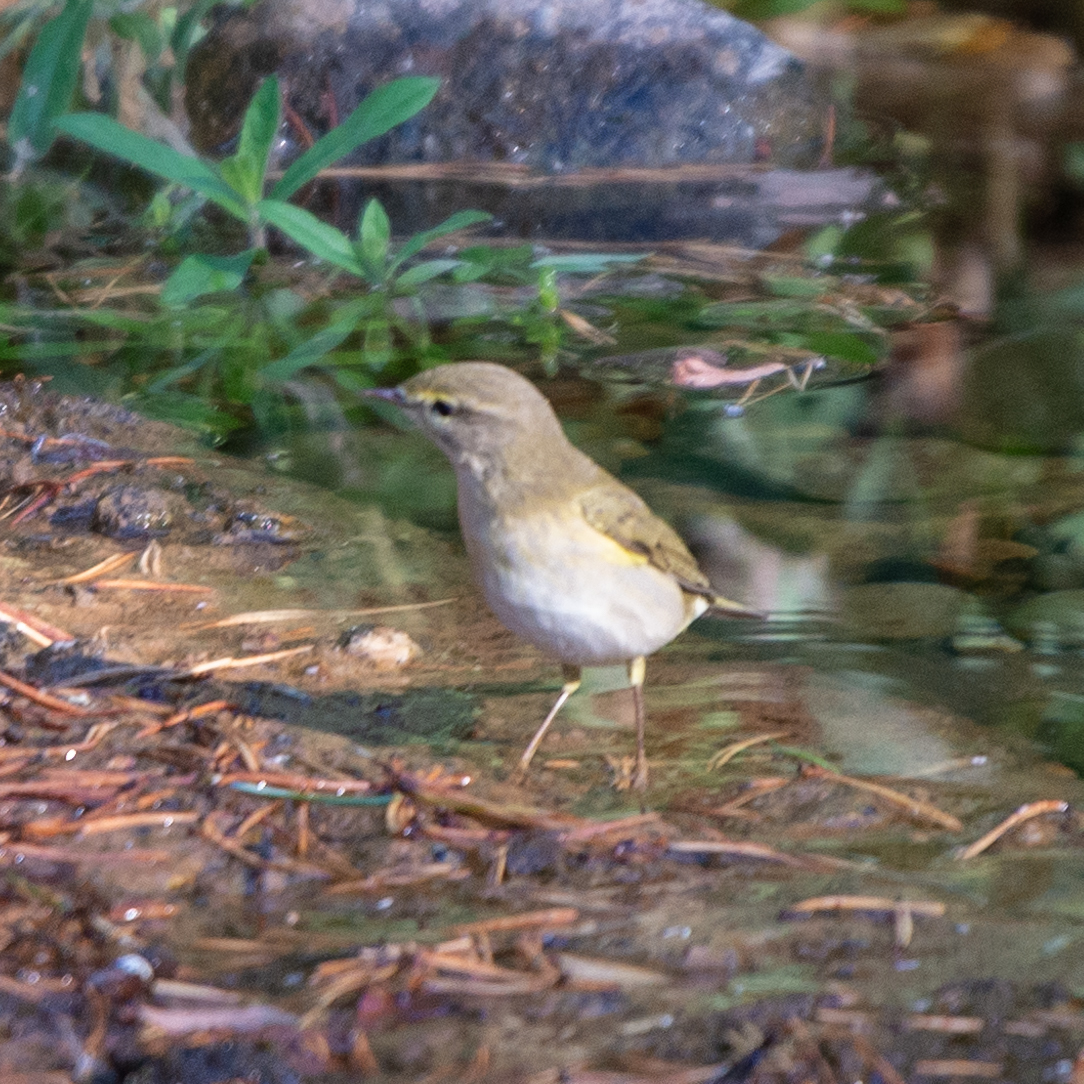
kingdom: Animalia
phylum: Chordata
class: Aves
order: Passeriformes
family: Phylloscopidae
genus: Phylloscopus
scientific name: Phylloscopus trochilus
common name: Willow warbler
